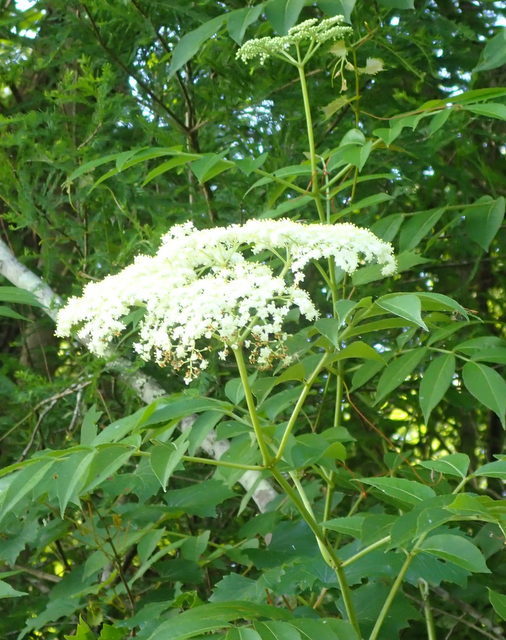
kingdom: Plantae
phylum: Tracheophyta
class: Magnoliopsida
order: Dipsacales
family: Viburnaceae
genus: Sambucus
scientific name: Sambucus canadensis
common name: American elder
